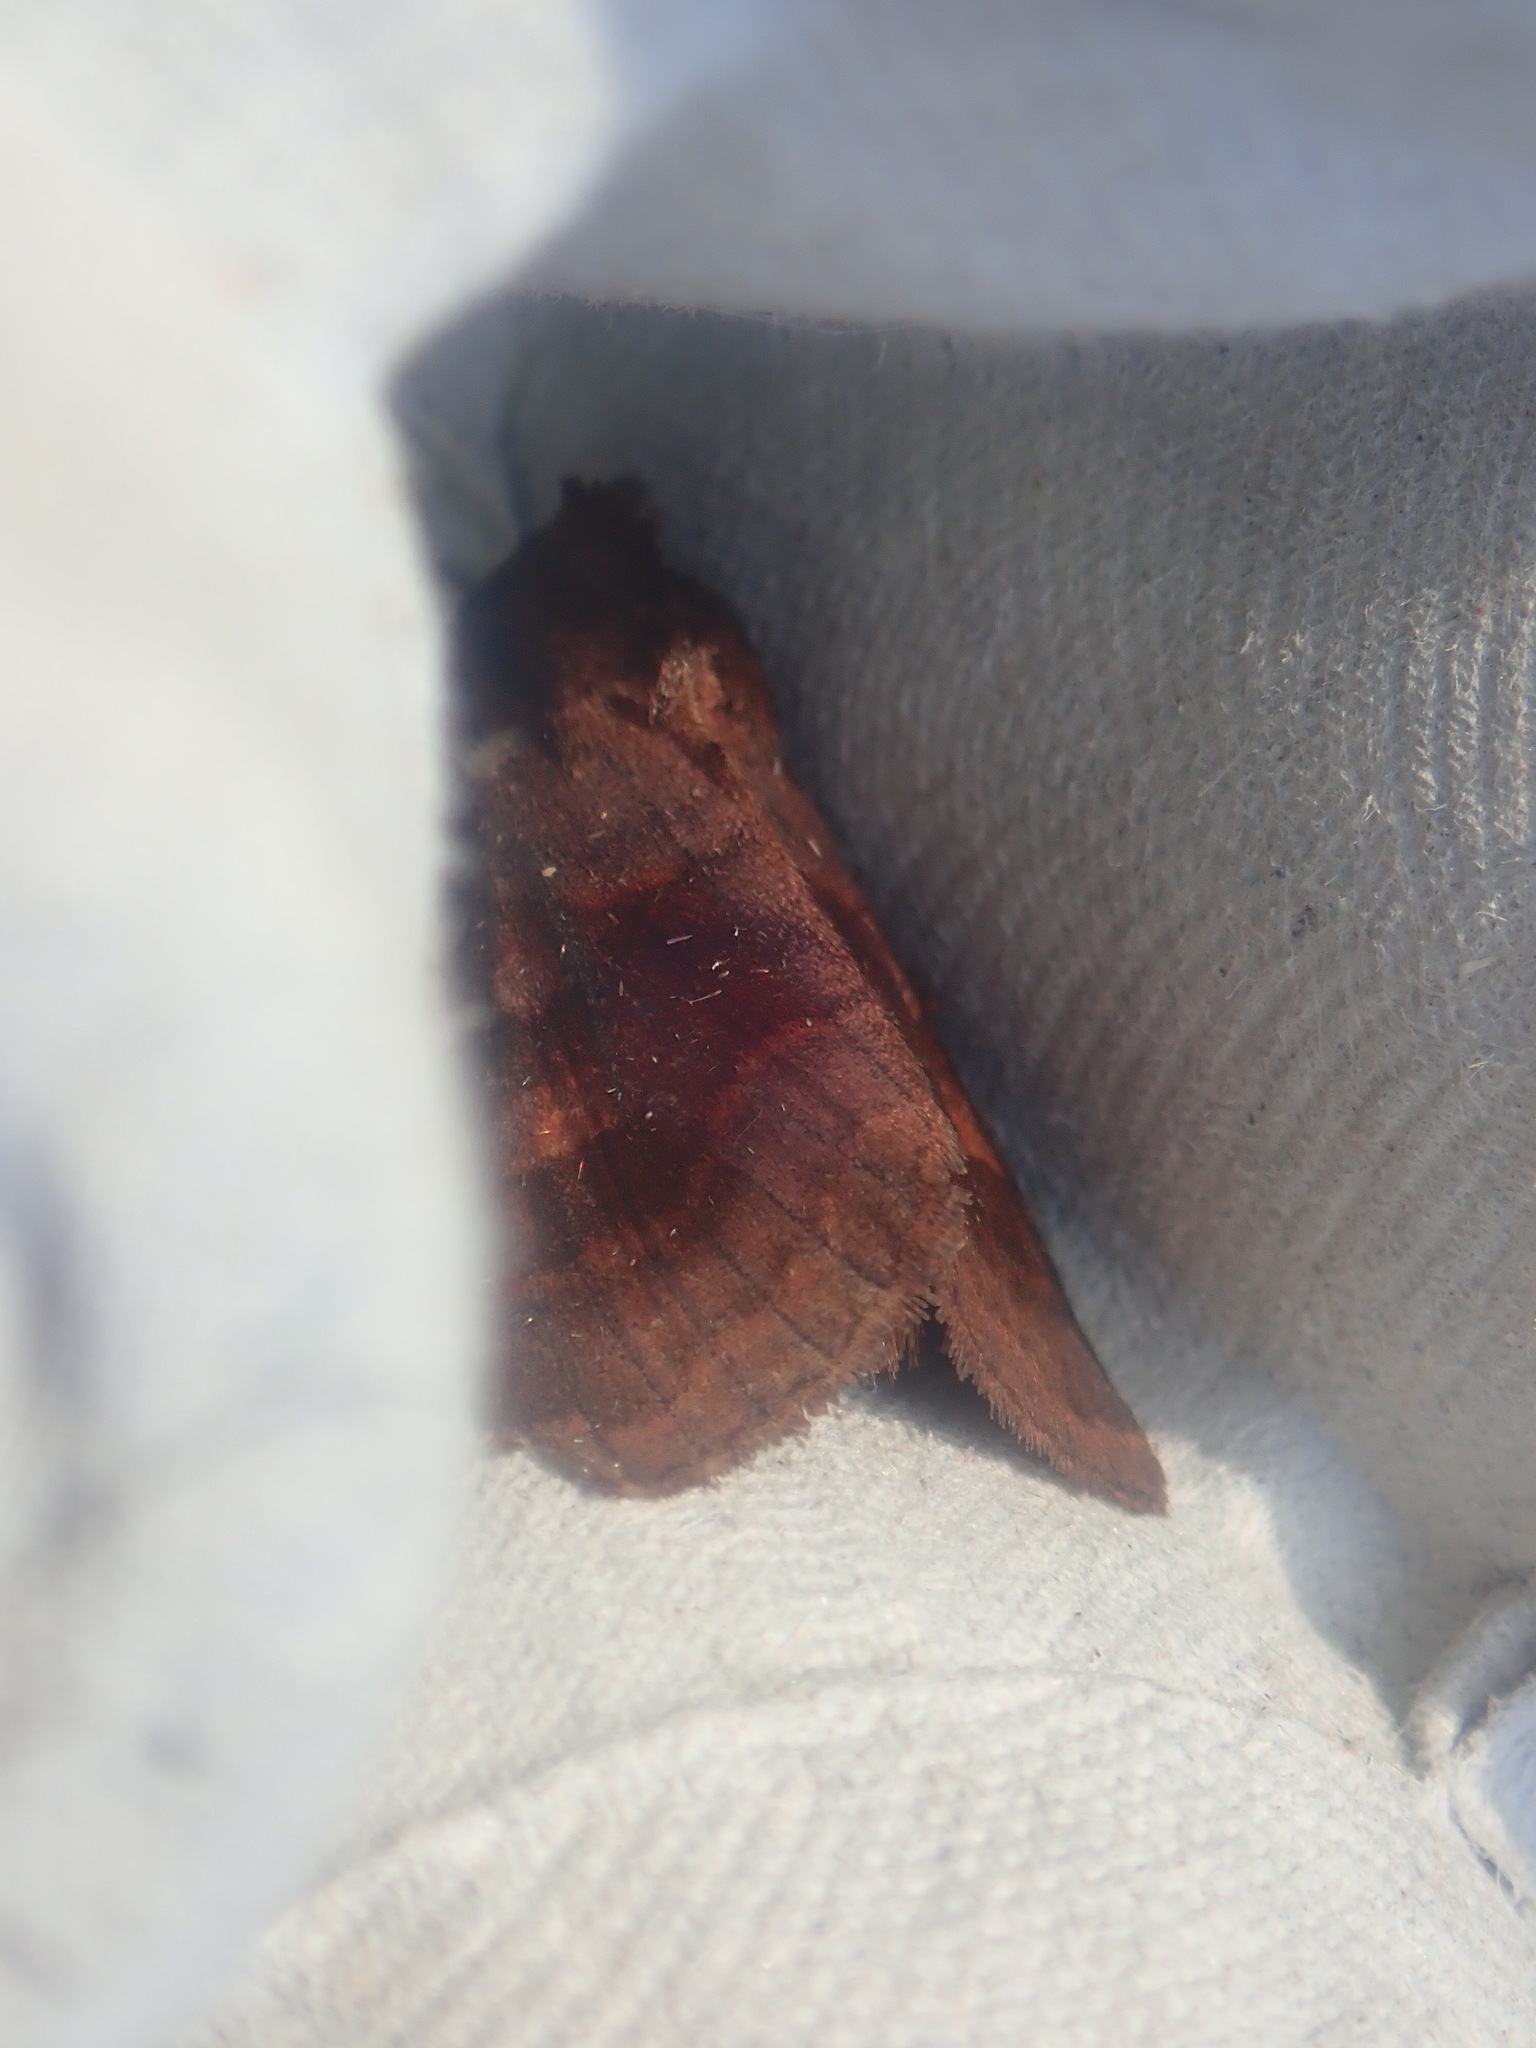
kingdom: Animalia
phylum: Arthropoda
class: Insecta
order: Lepidoptera
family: Noctuidae
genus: Nephelodes
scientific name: Nephelodes minians
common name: Bronzed cutworm
